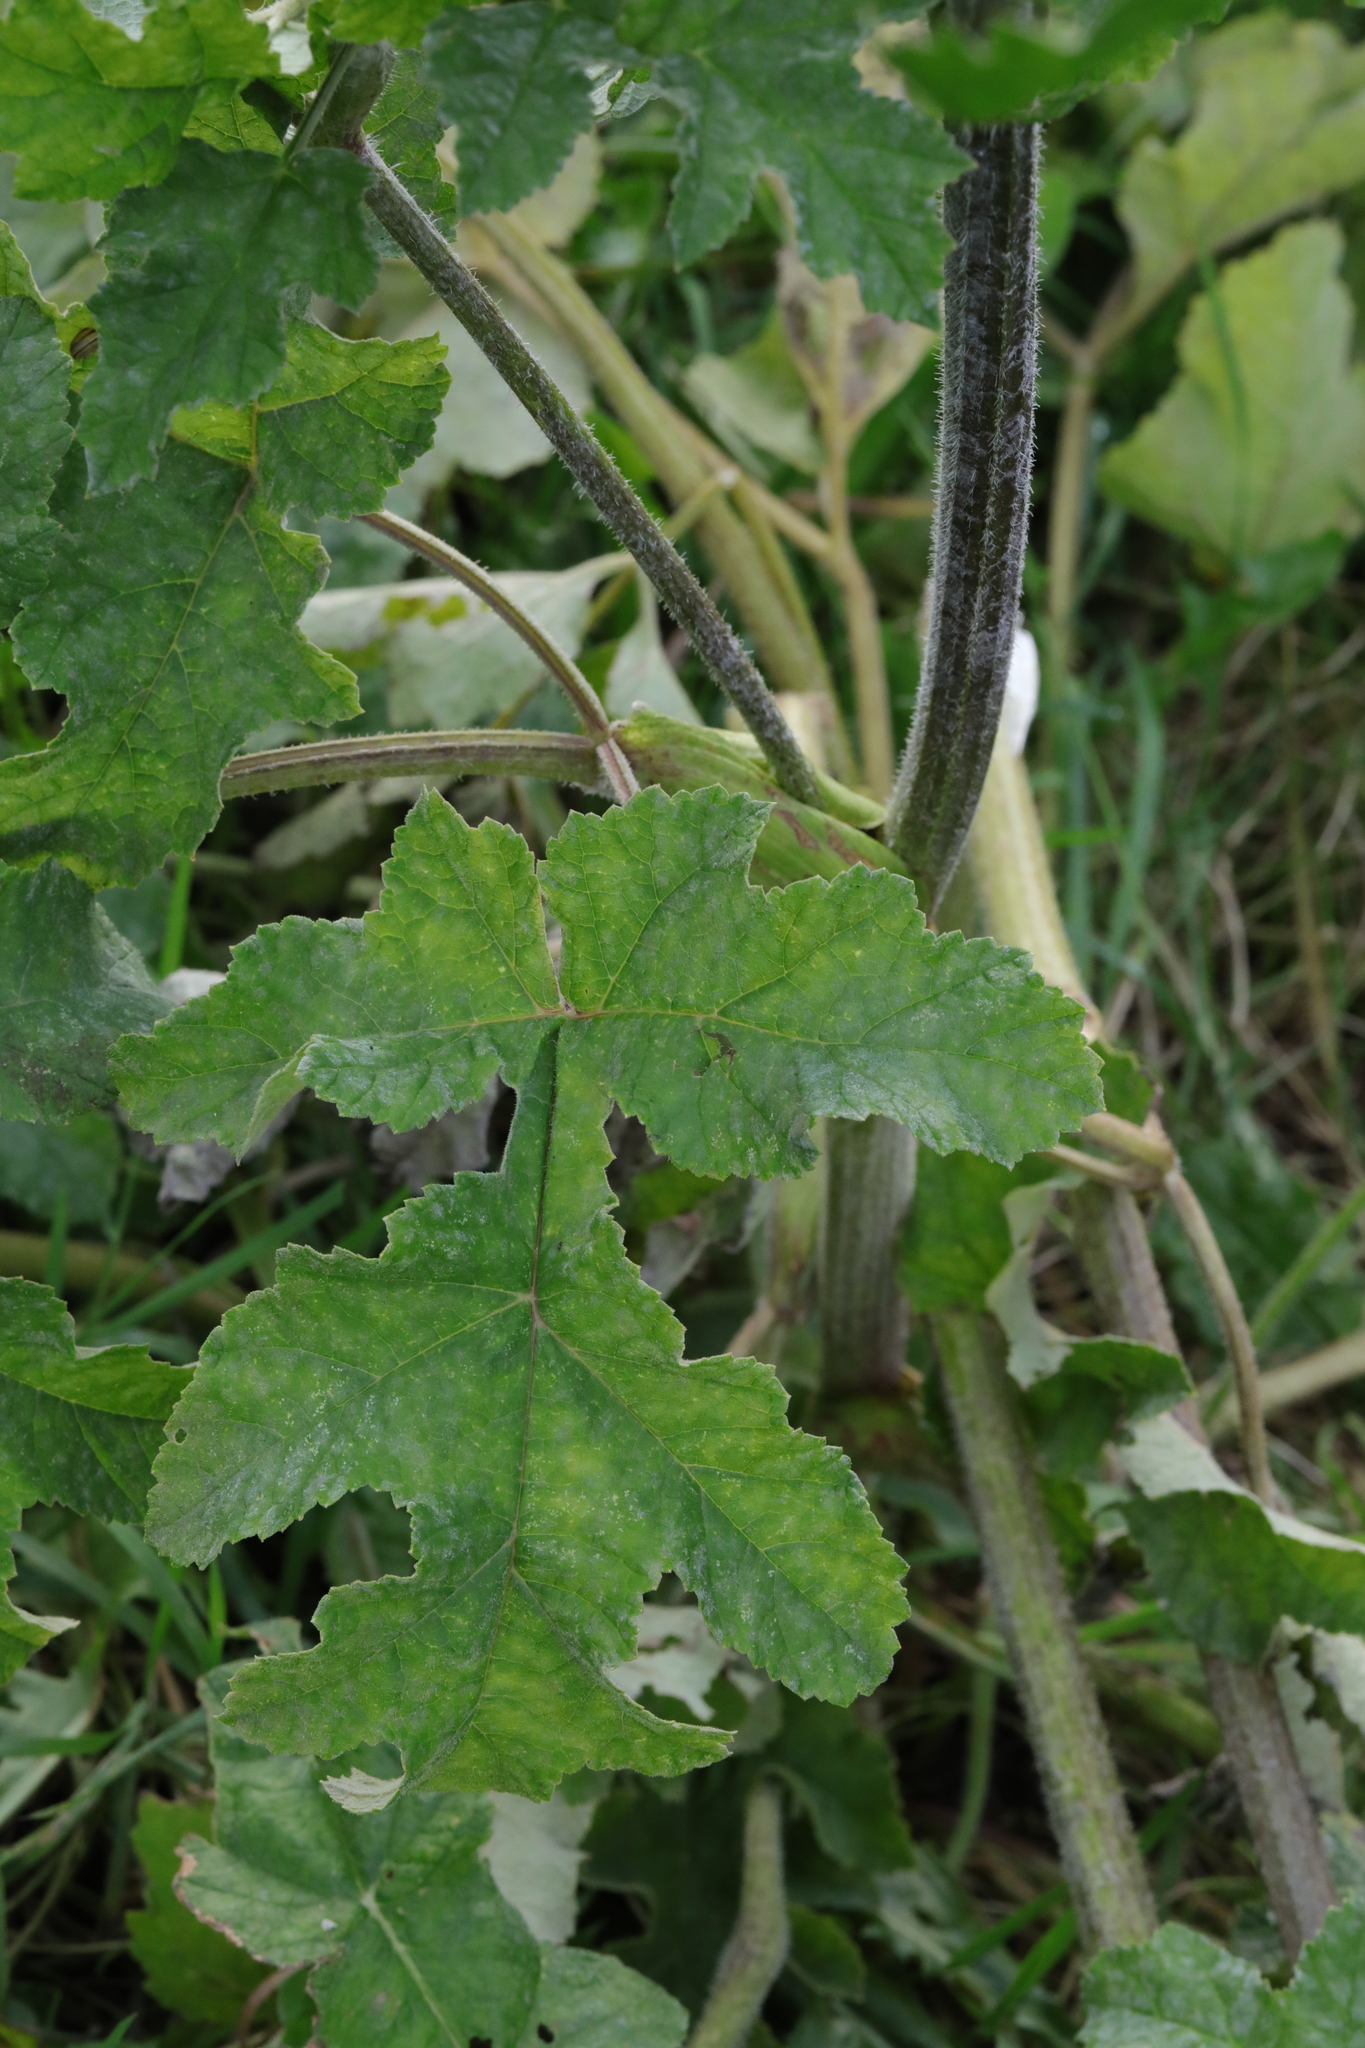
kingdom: Plantae
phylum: Tracheophyta
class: Magnoliopsida
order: Apiales
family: Apiaceae
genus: Heracleum
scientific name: Heracleum sphondylium
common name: Hogweed
